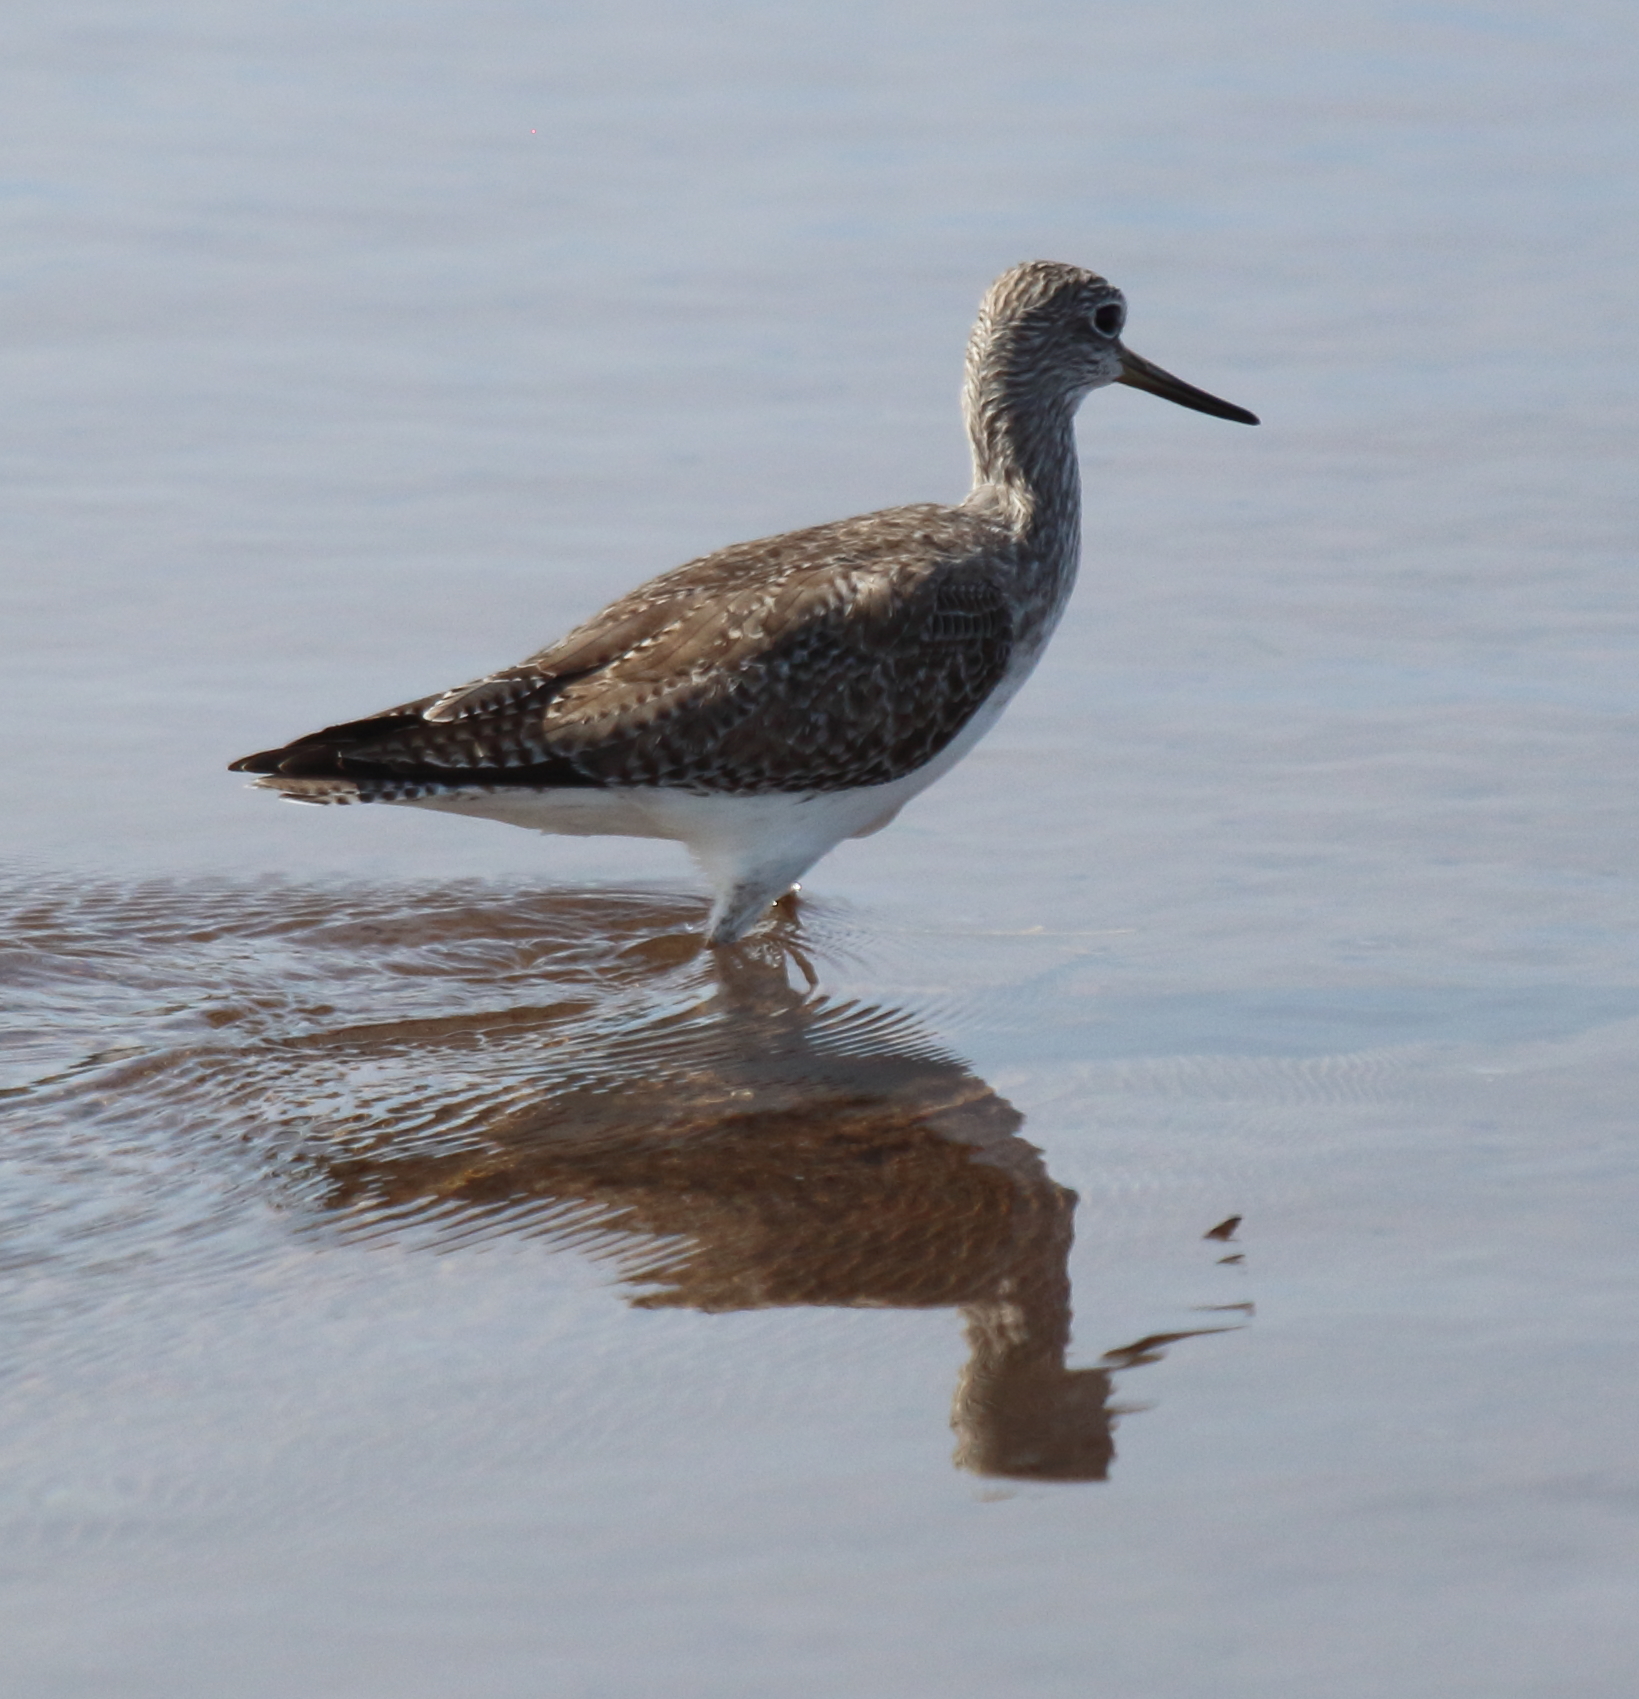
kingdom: Animalia
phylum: Chordata
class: Aves
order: Charadriiformes
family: Scolopacidae
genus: Tringa
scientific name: Tringa melanoleuca
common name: Greater yellowlegs
